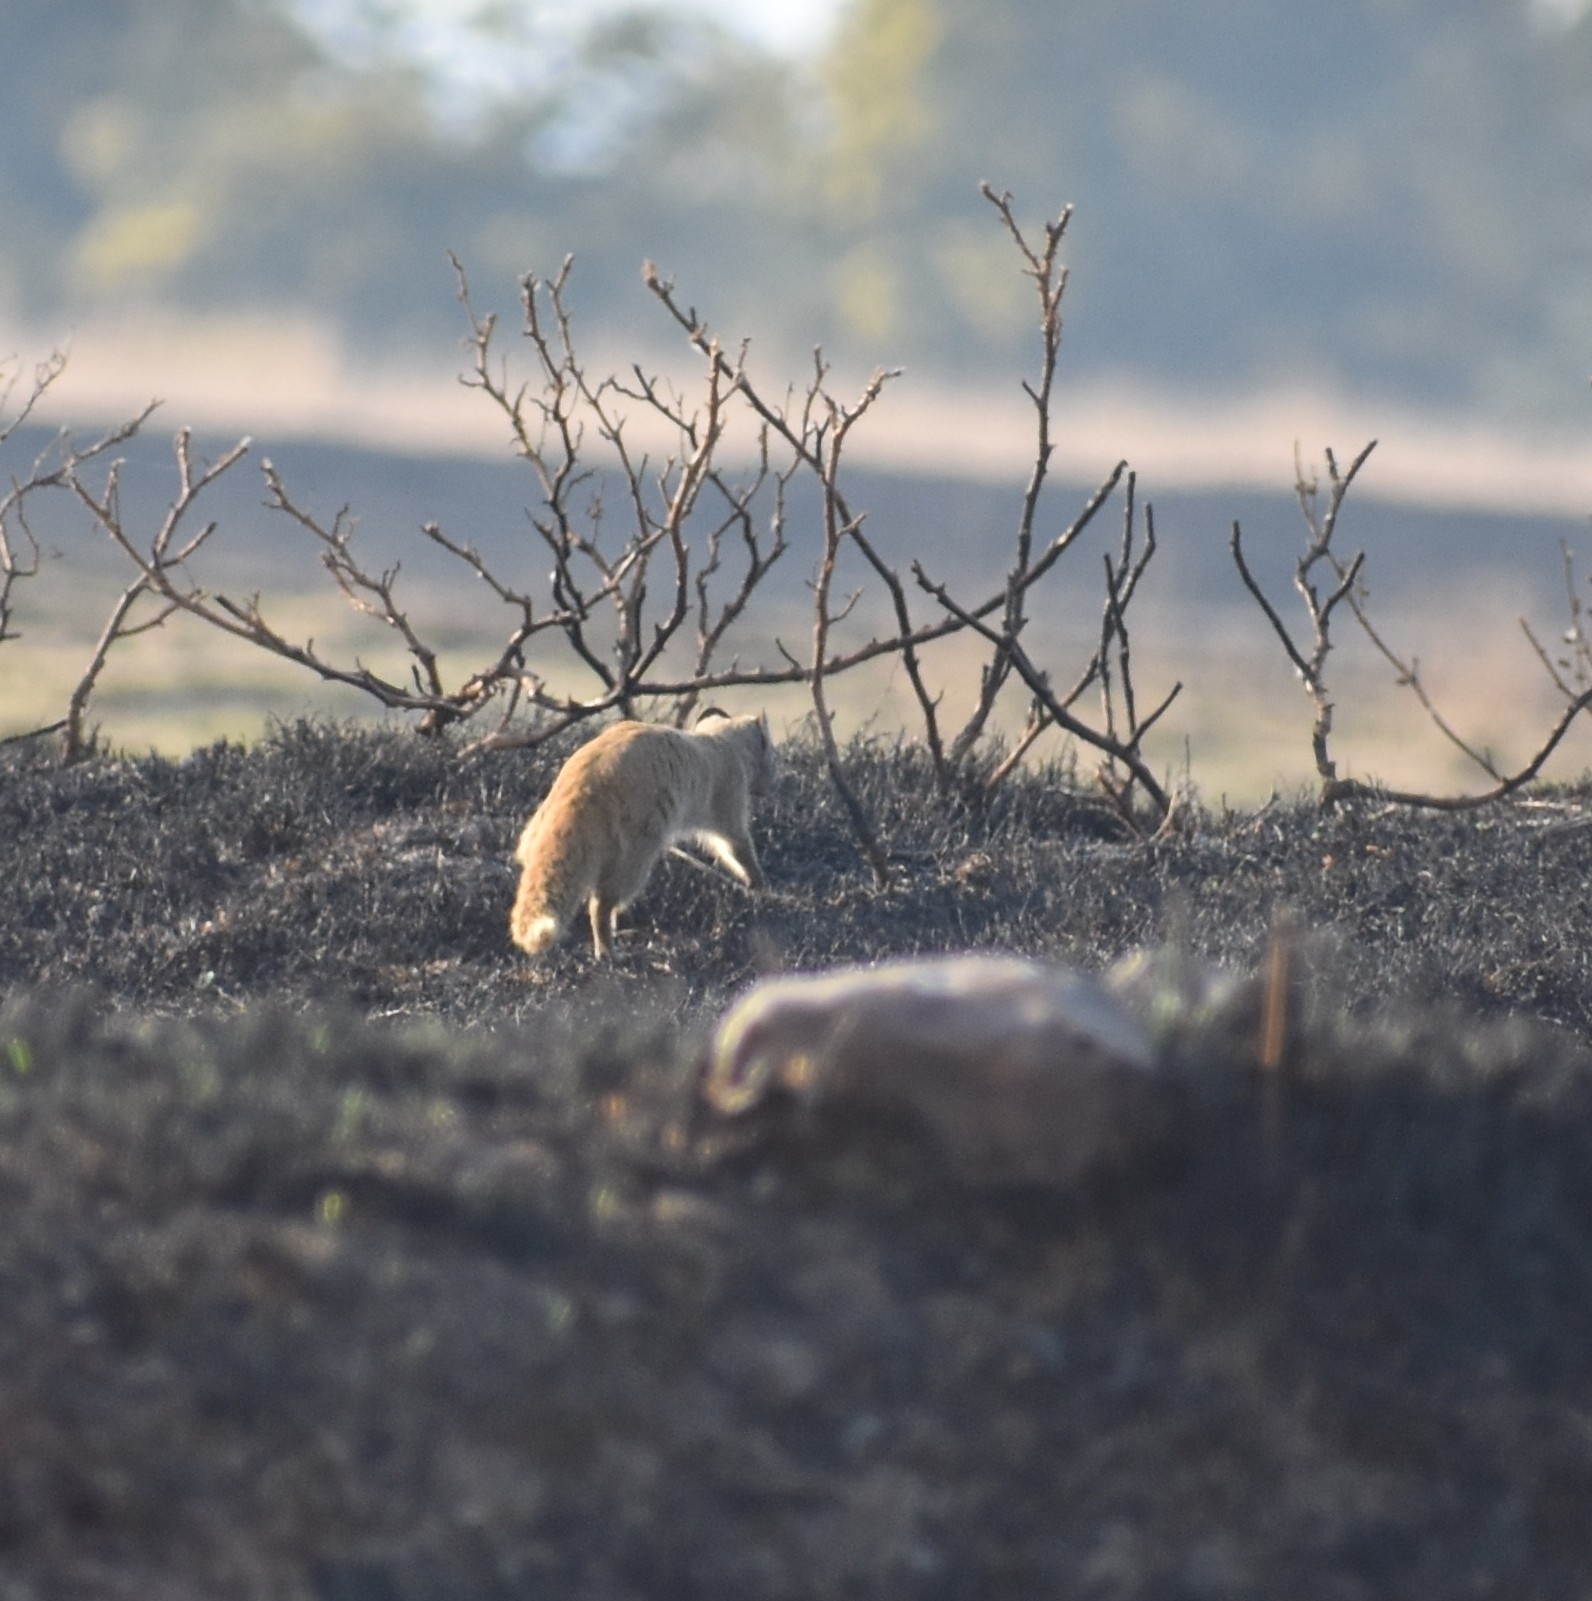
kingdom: Animalia
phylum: Chordata
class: Mammalia
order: Carnivora
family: Herpestidae
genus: Cynictis
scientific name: Cynictis penicillata
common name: Yellow mongoose
